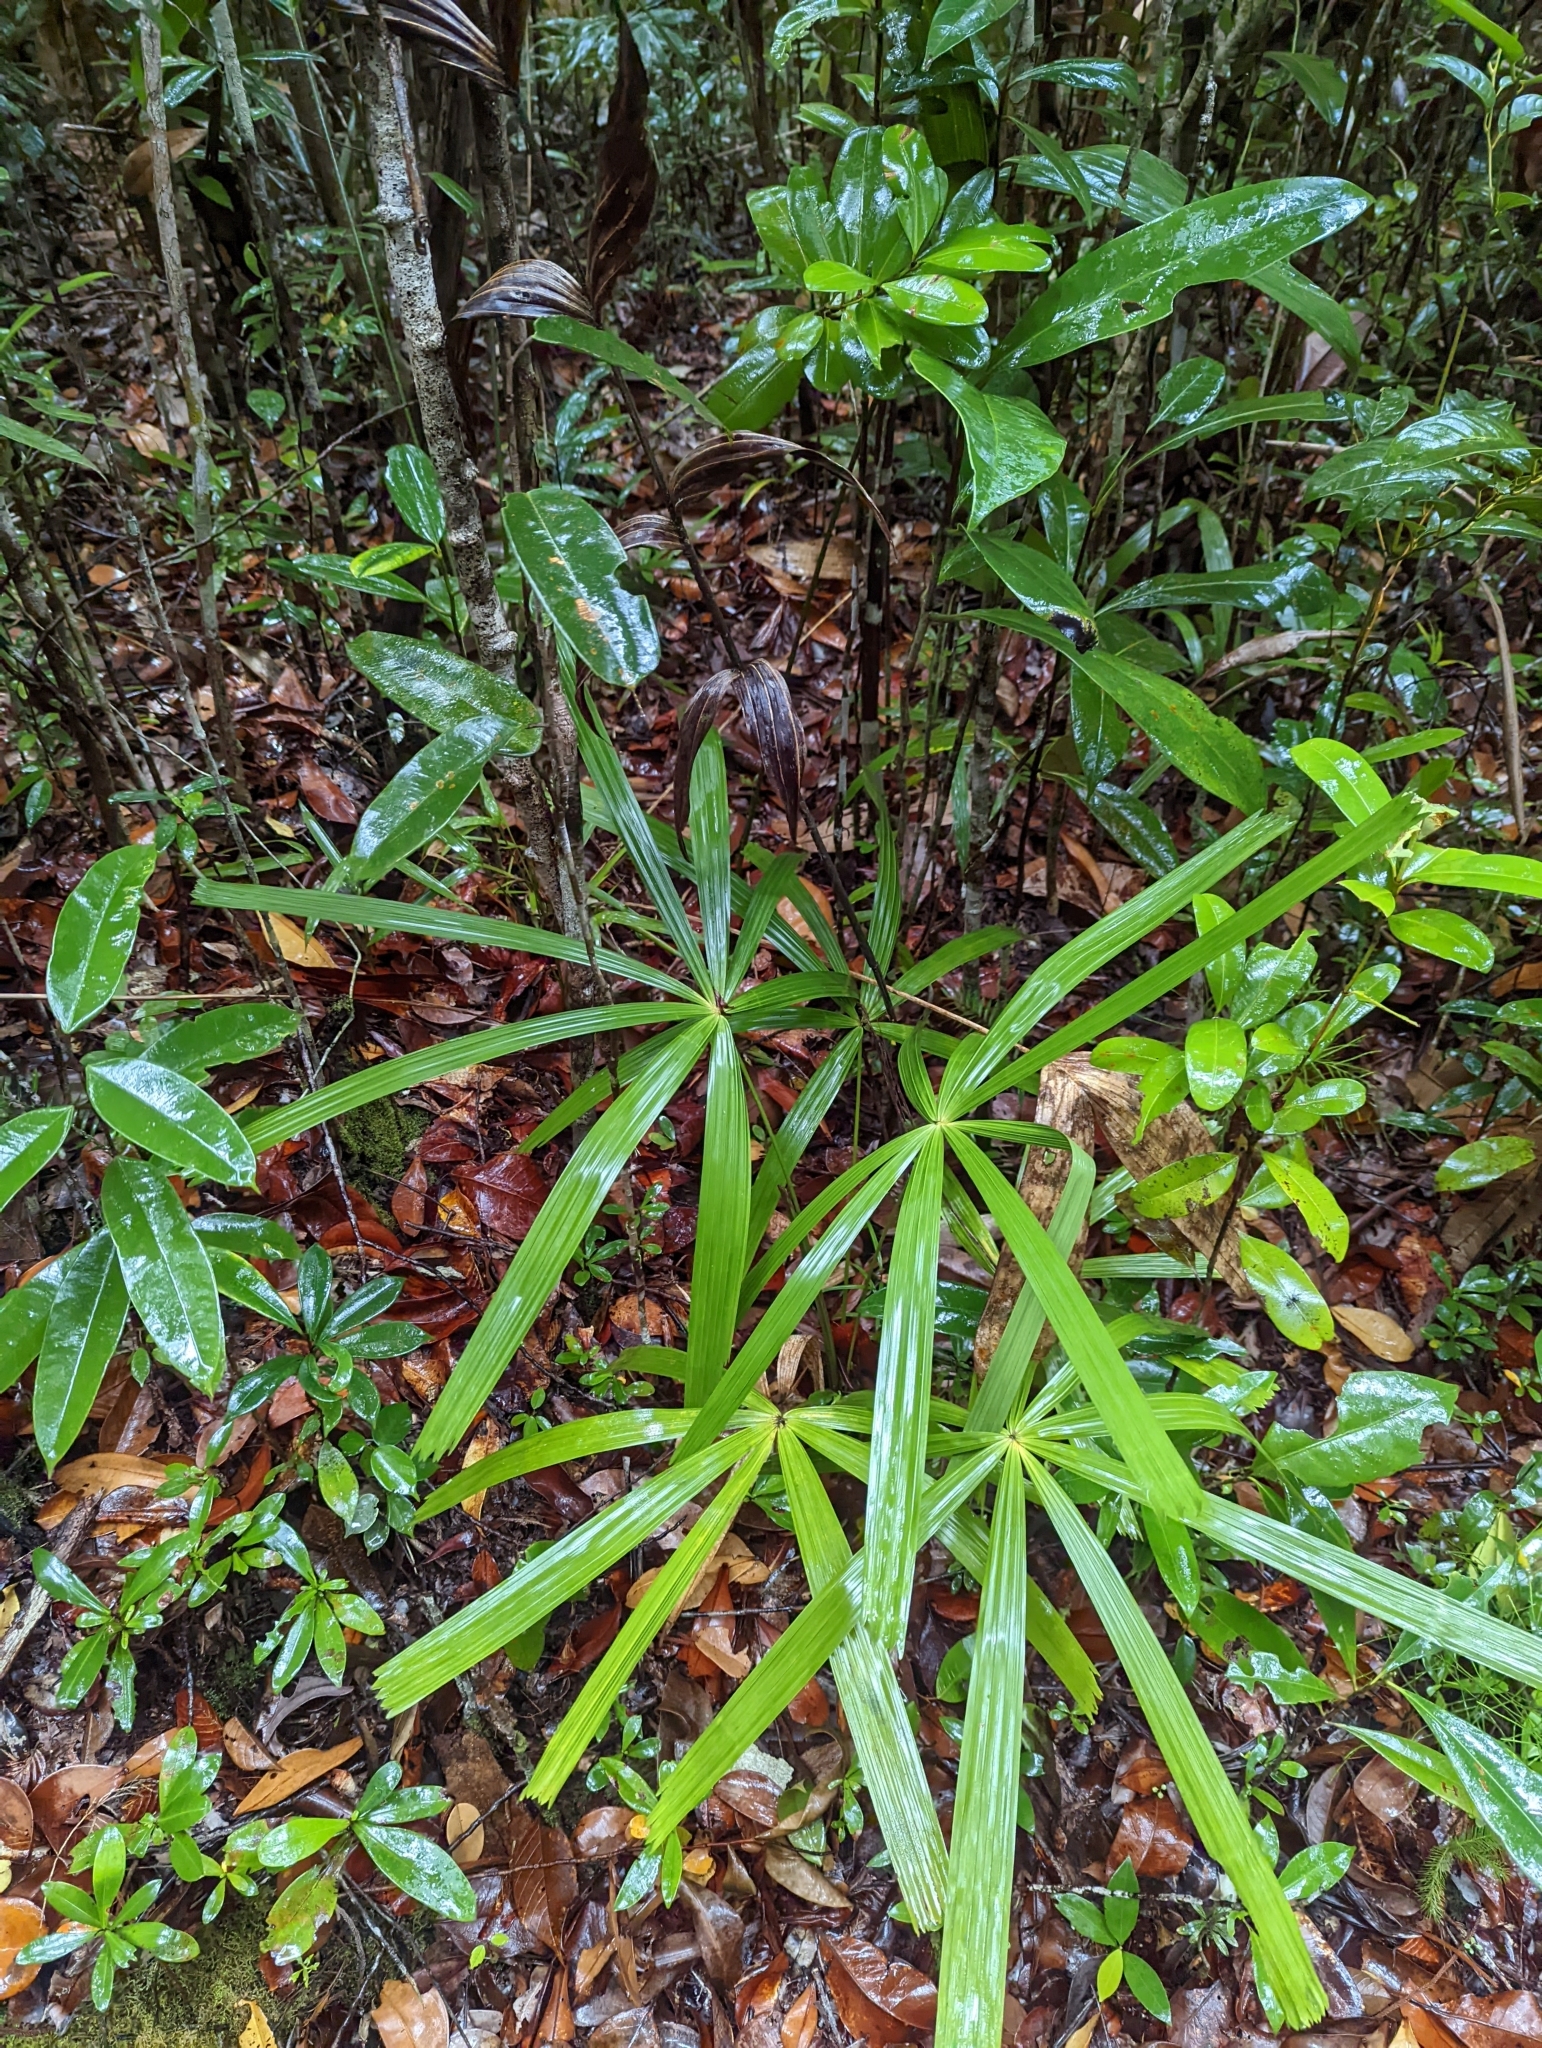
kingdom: Plantae
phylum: Tracheophyta
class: Liliopsida
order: Arecales
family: Arecaceae
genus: Licuala
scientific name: Licuala bidentata
